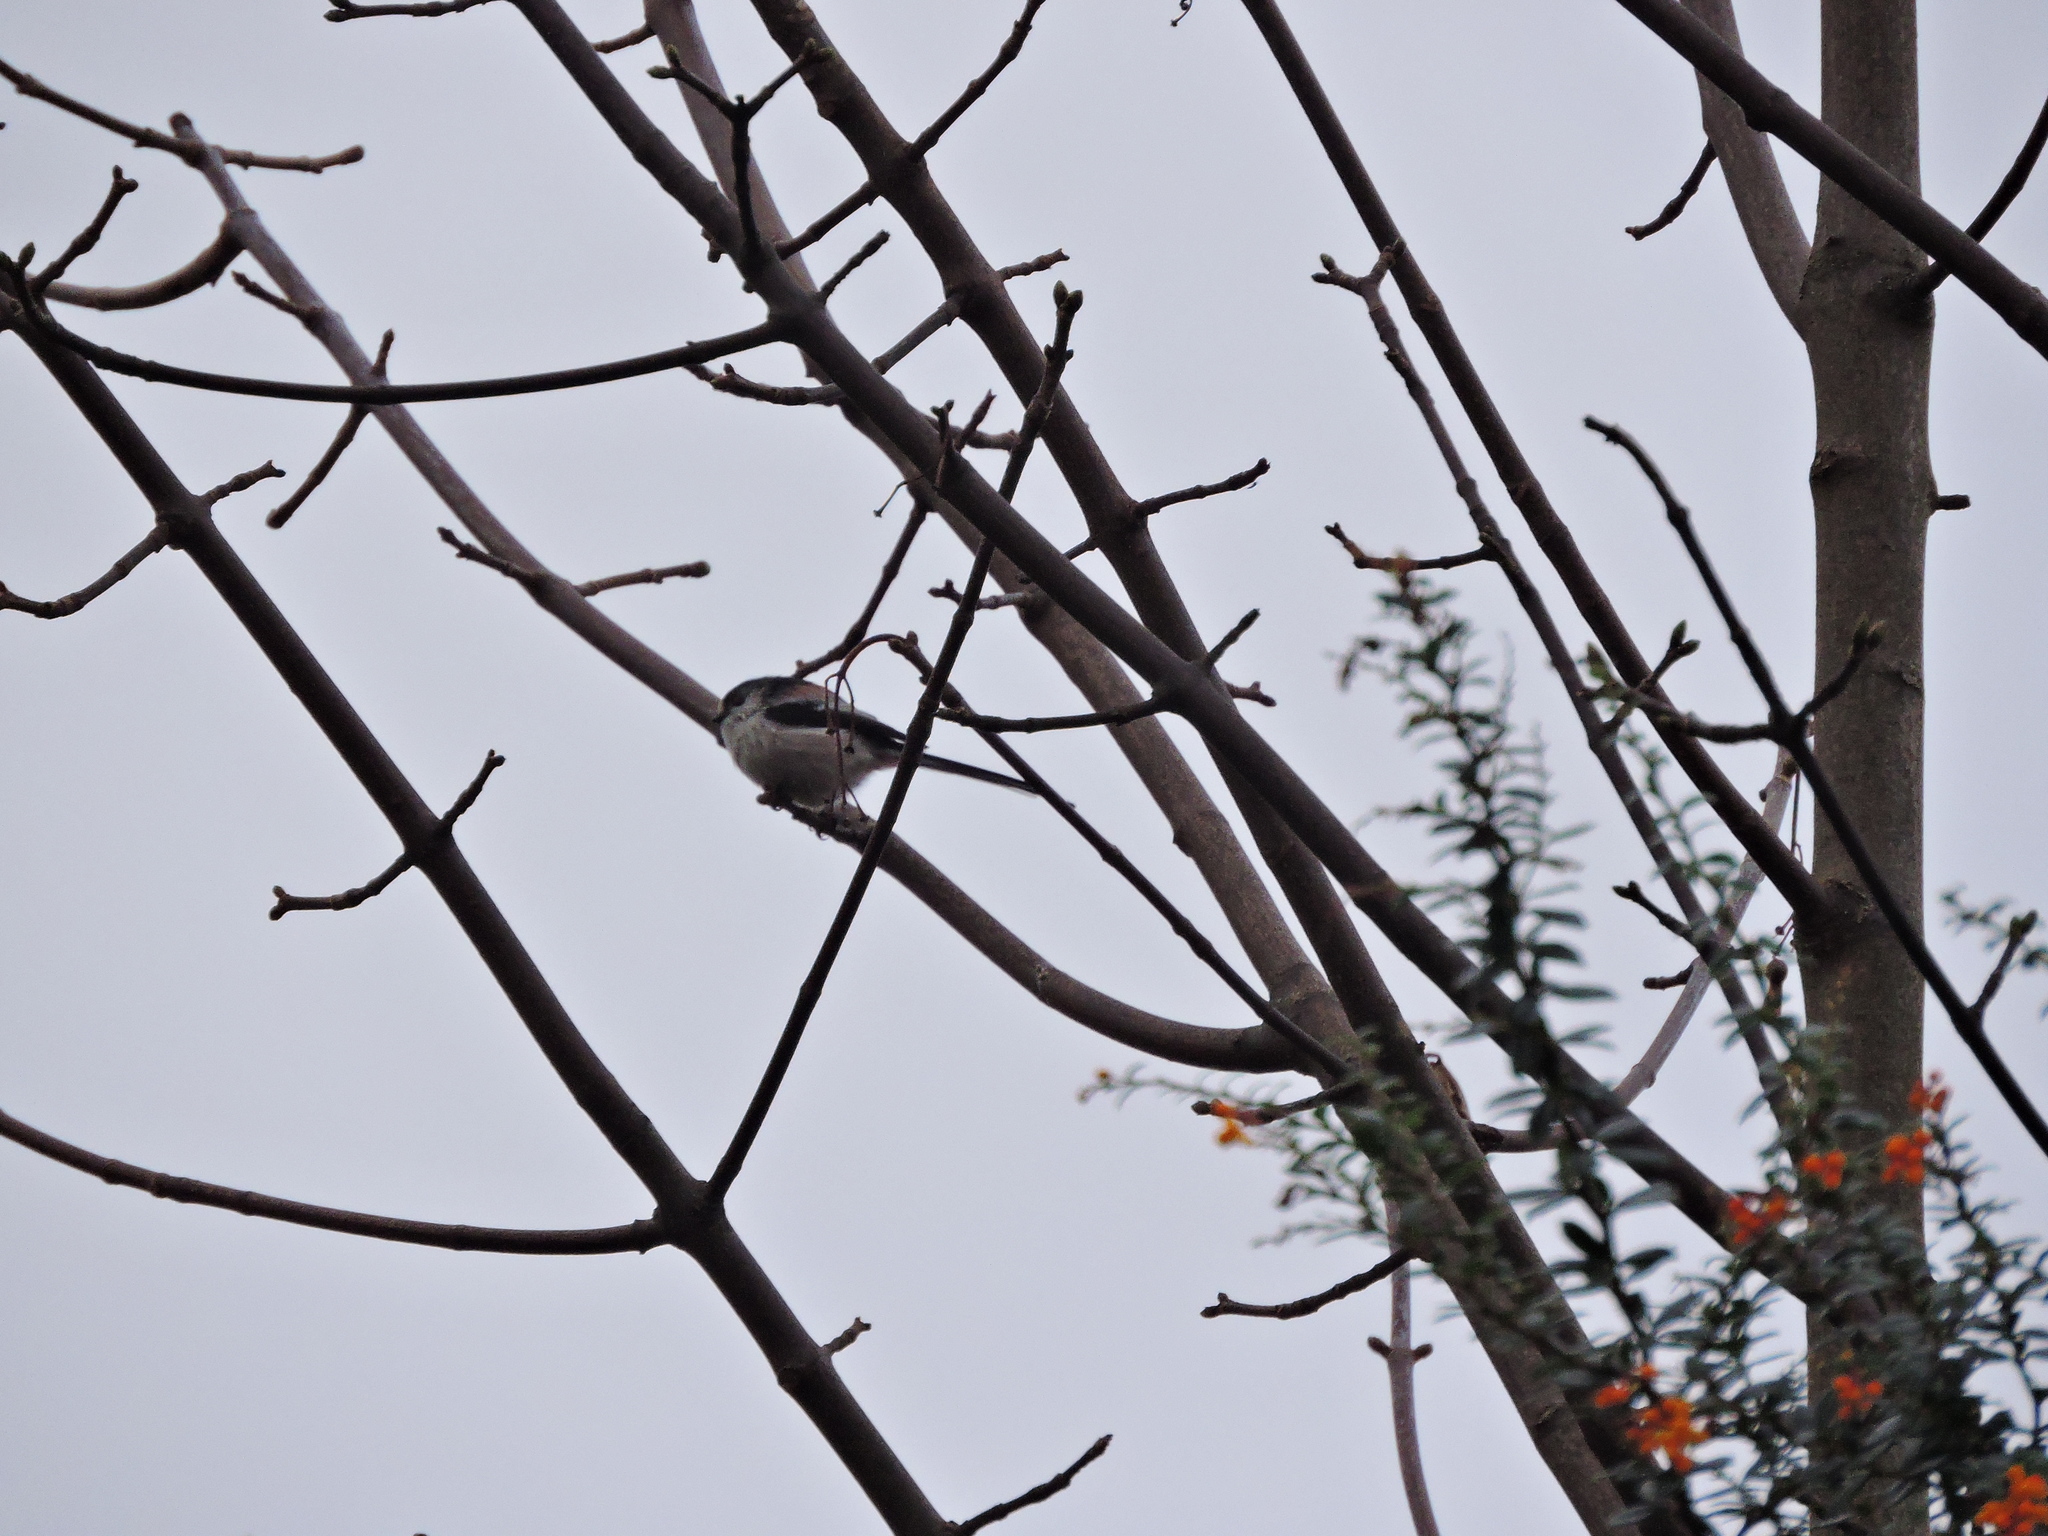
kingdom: Animalia
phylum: Chordata
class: Aves
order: Passeriformes
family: Aegithalidae
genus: Aegithalos
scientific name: Aegithalos caudatus
